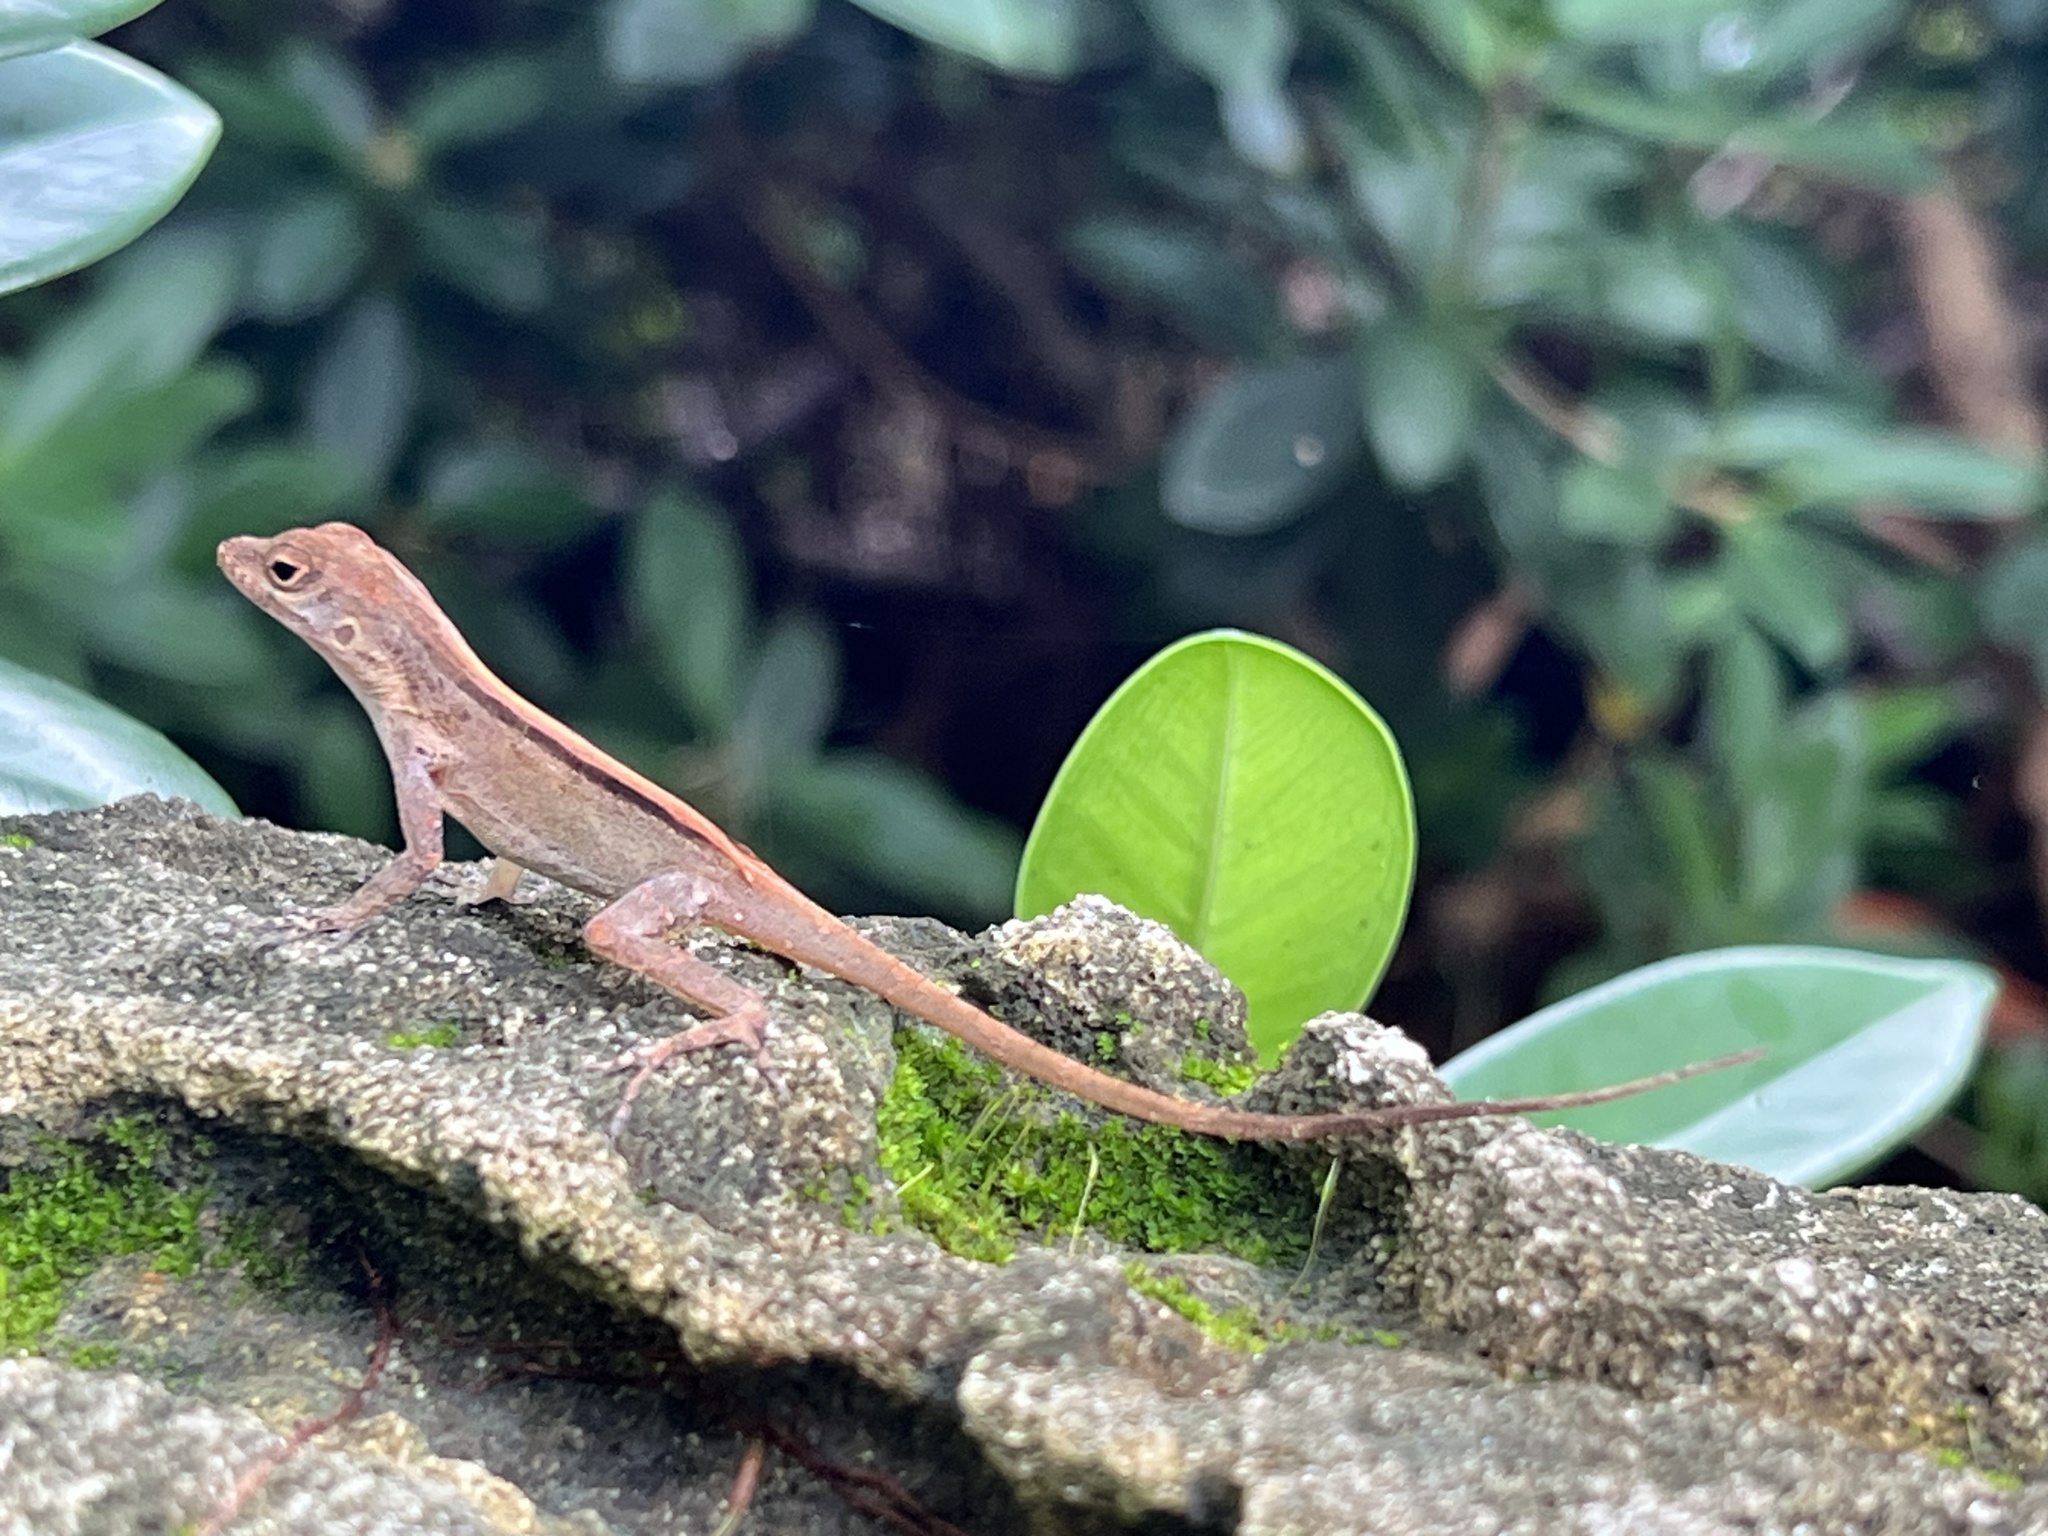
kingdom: Animalia
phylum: Chordata
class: Squamata
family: Dactyloidae
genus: Anolis
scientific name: Anolis cristatellus
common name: Crested anole
